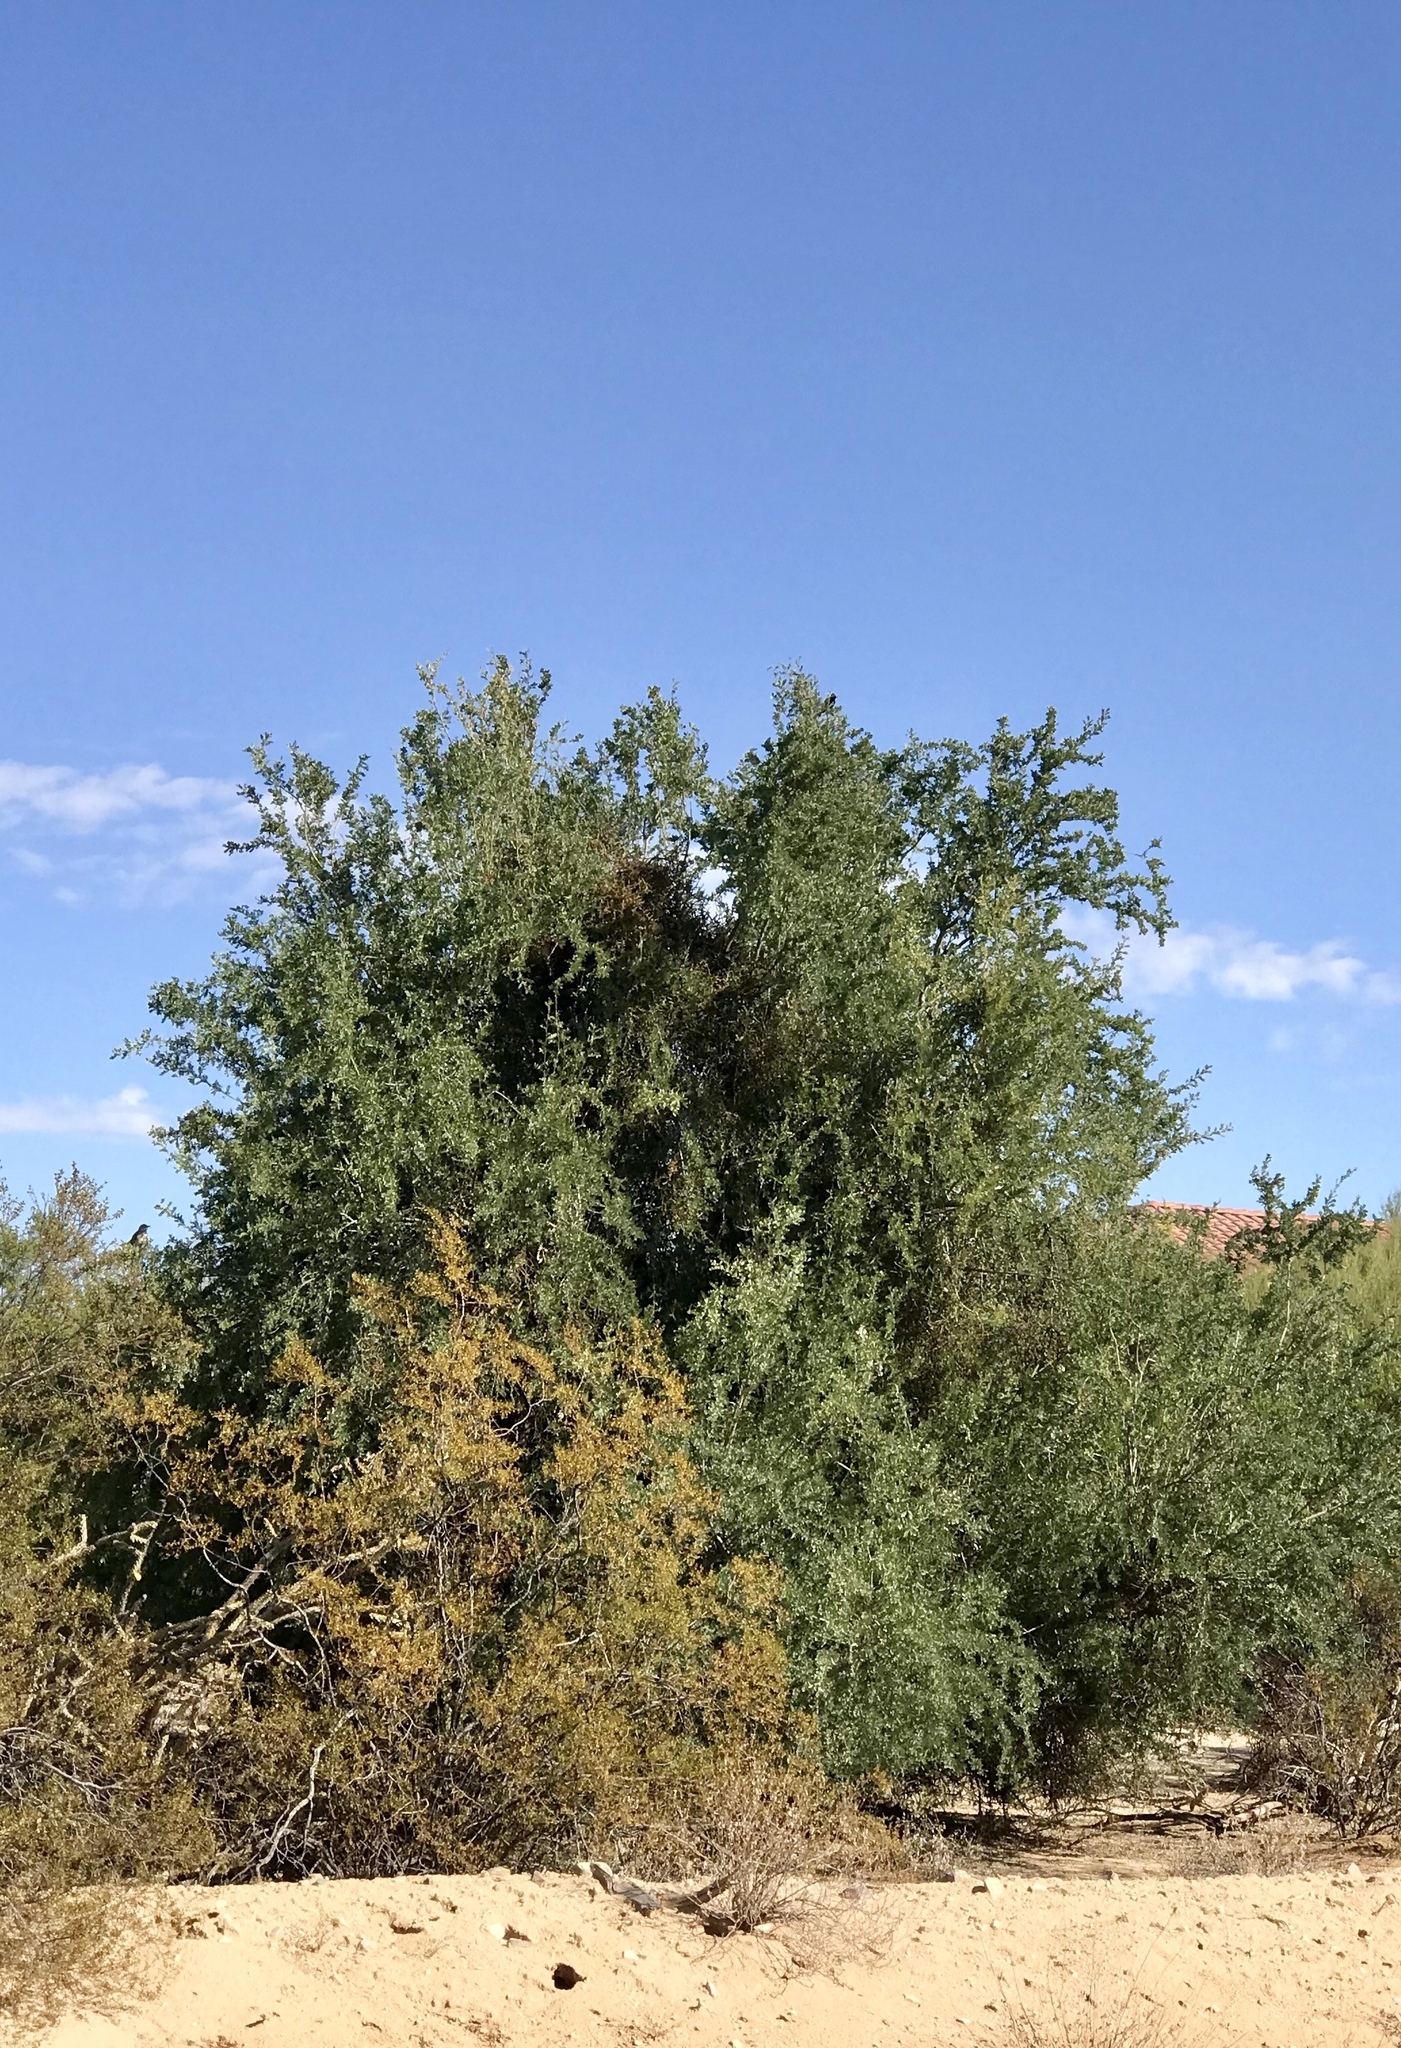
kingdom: Plantae
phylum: Tracheophyta
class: Magnoliopsida
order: Fabales
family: Fabaceae
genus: Olneya
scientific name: Olneya tesota
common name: Desert ironwood
